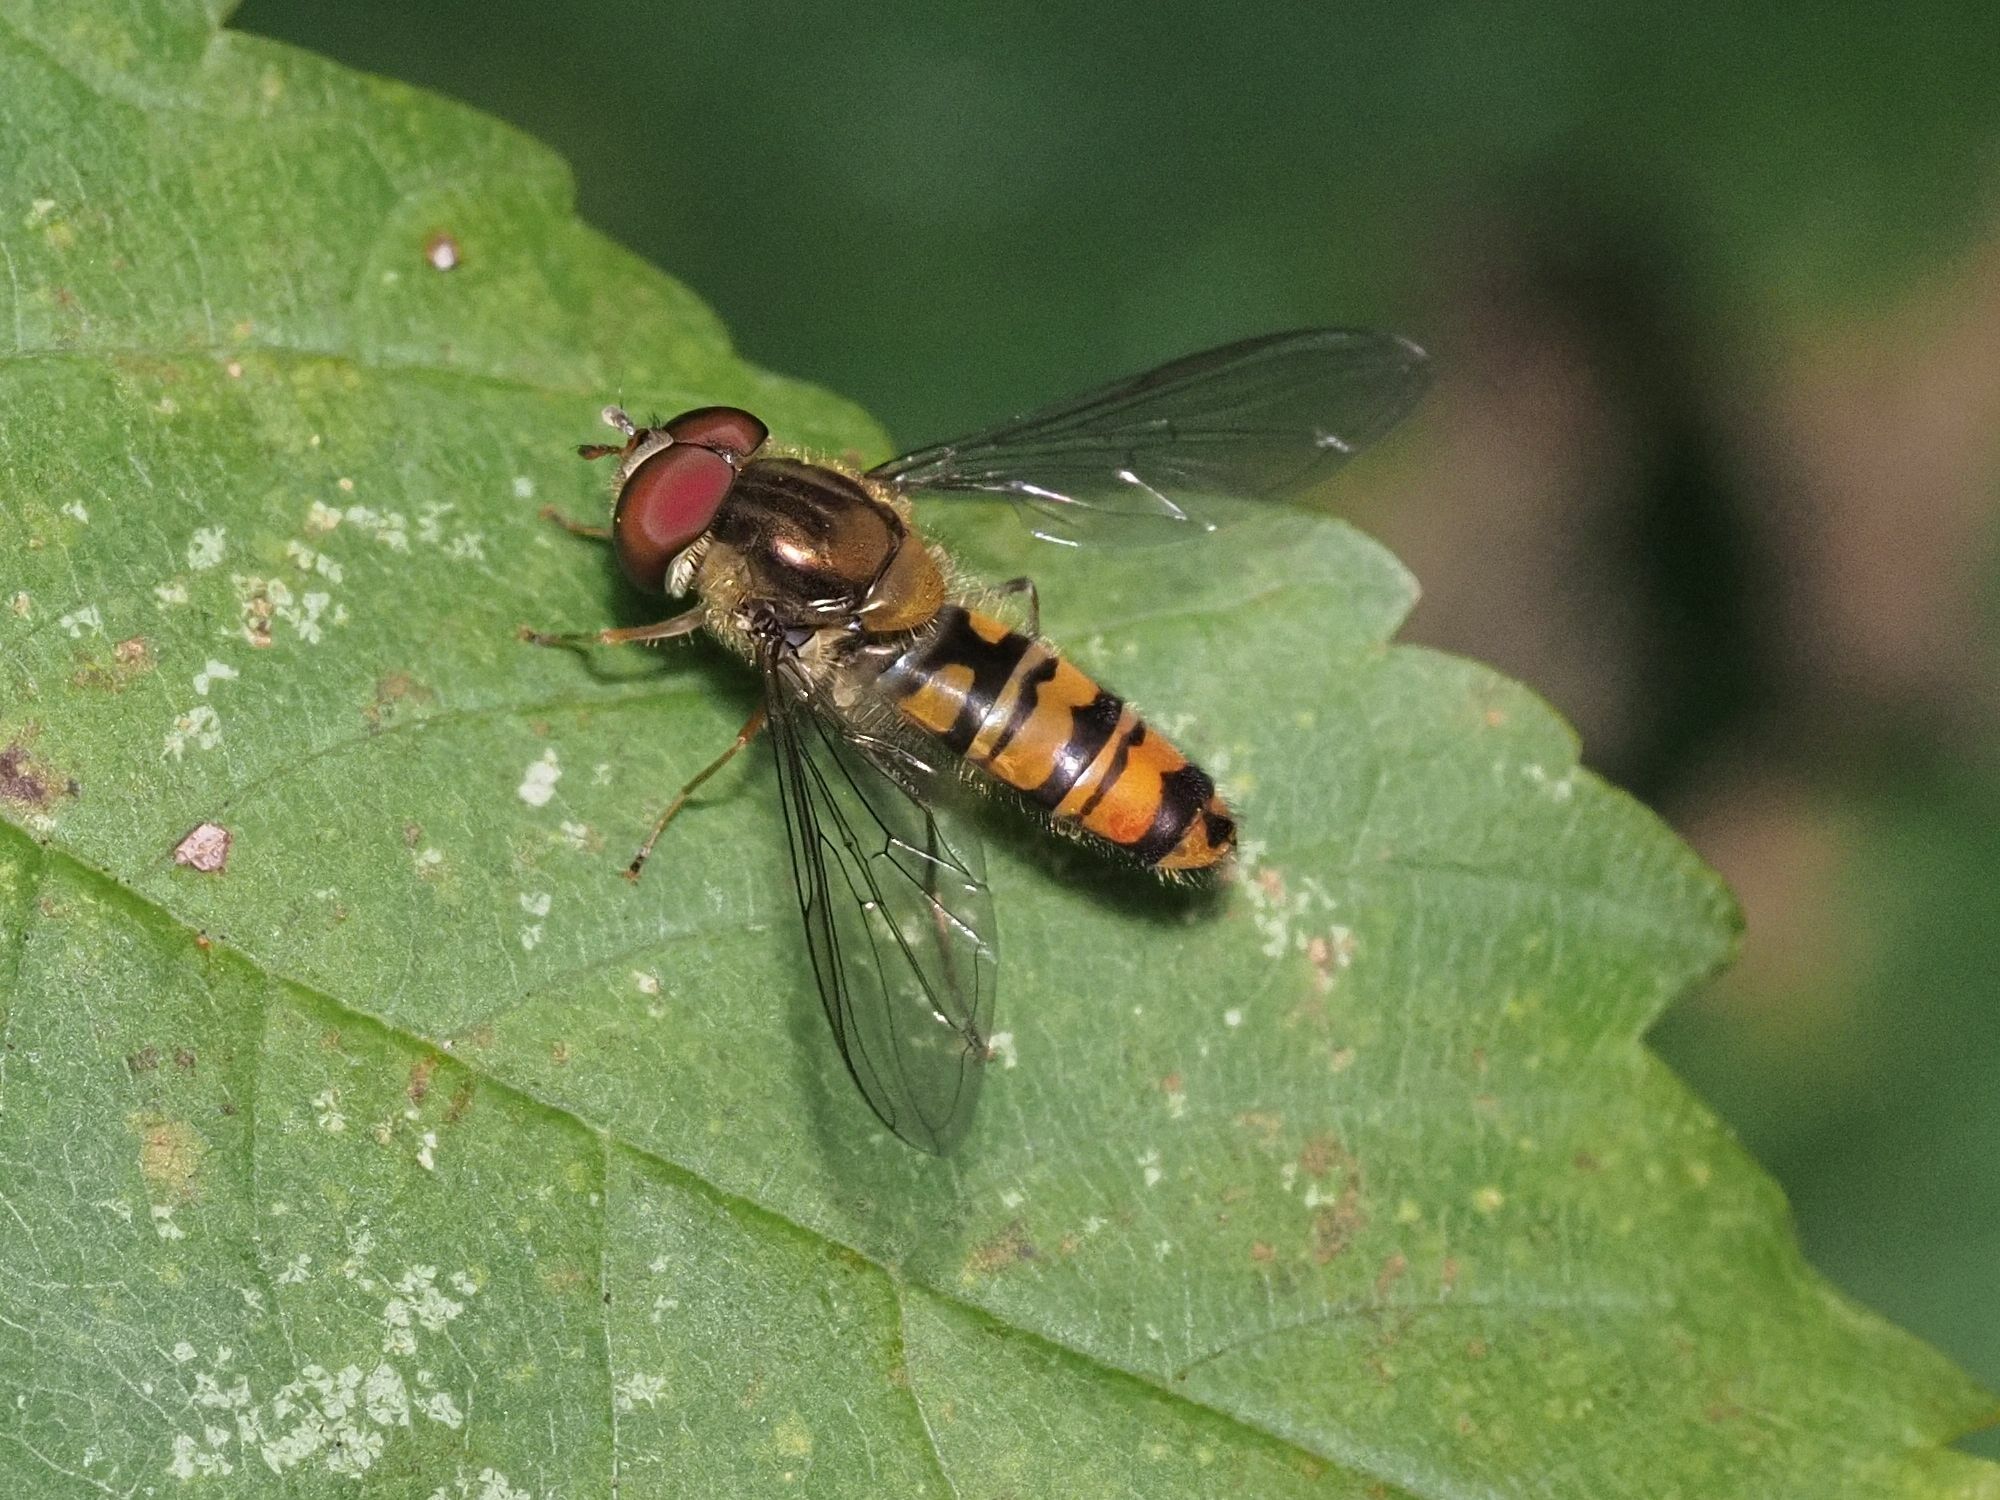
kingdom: Animalia
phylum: Arthropoda
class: Insecta
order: Diptera
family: Syrphidae
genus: Episyrphus
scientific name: Episyrphus balteatus
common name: Marmalade hoverfly
